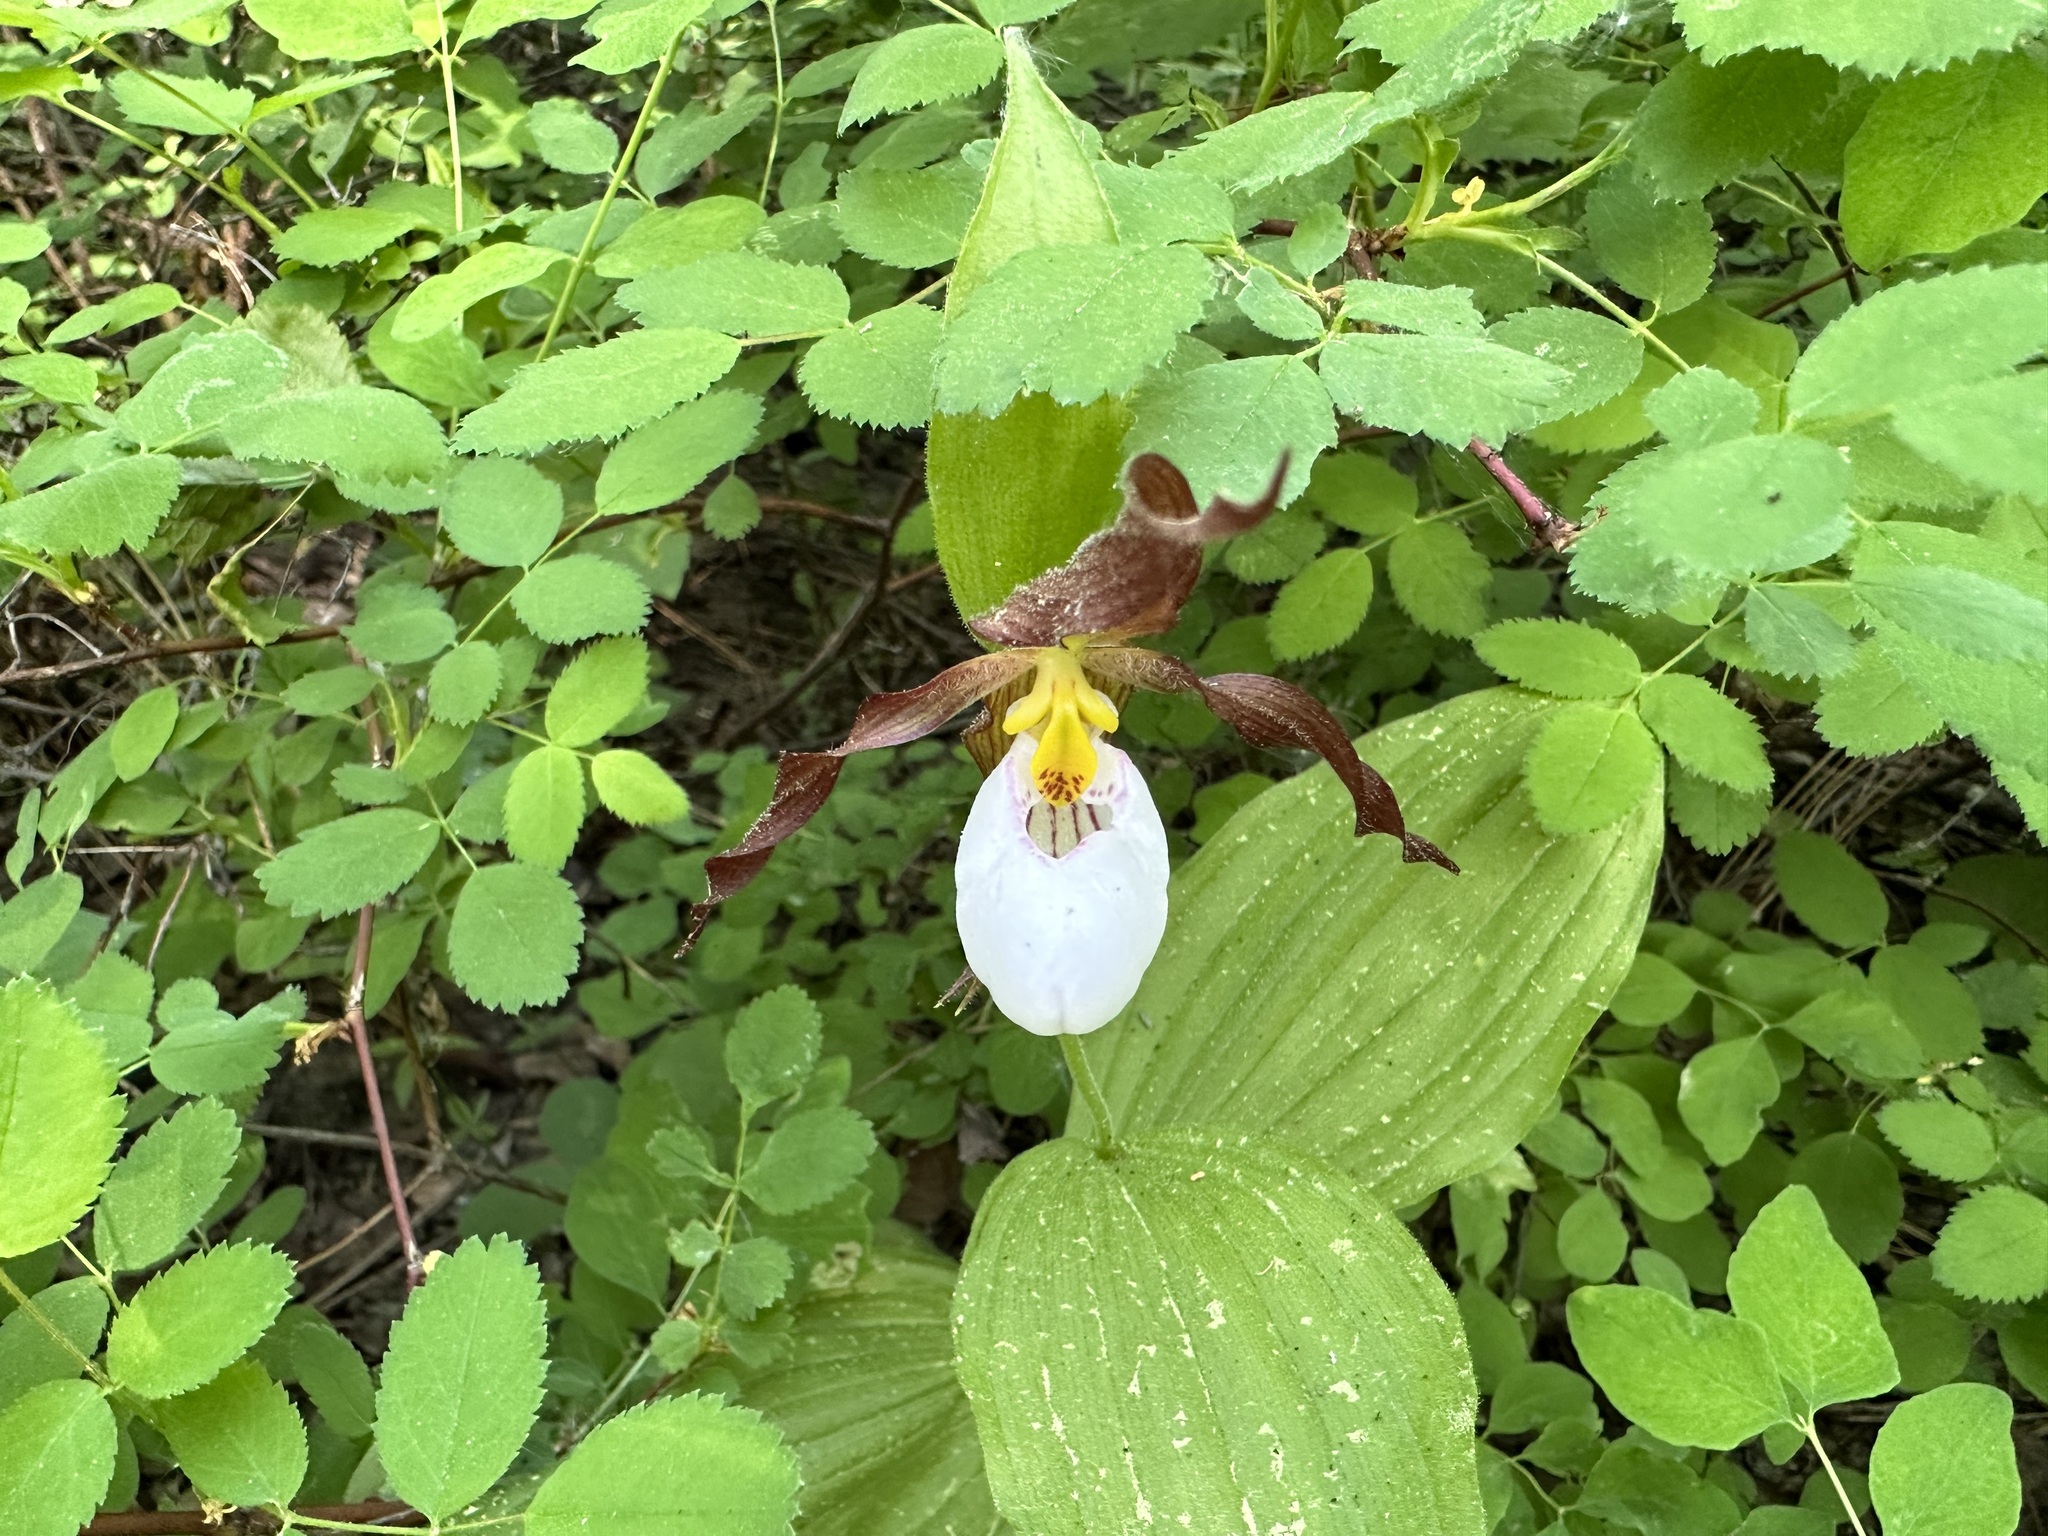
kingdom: Plantae
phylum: Tracheophyta
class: Liliopsida
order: Asparagales
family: Orchidaceae
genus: Cypripedium
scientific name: Cypripedium montanum
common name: Mountain lady's-slipper
